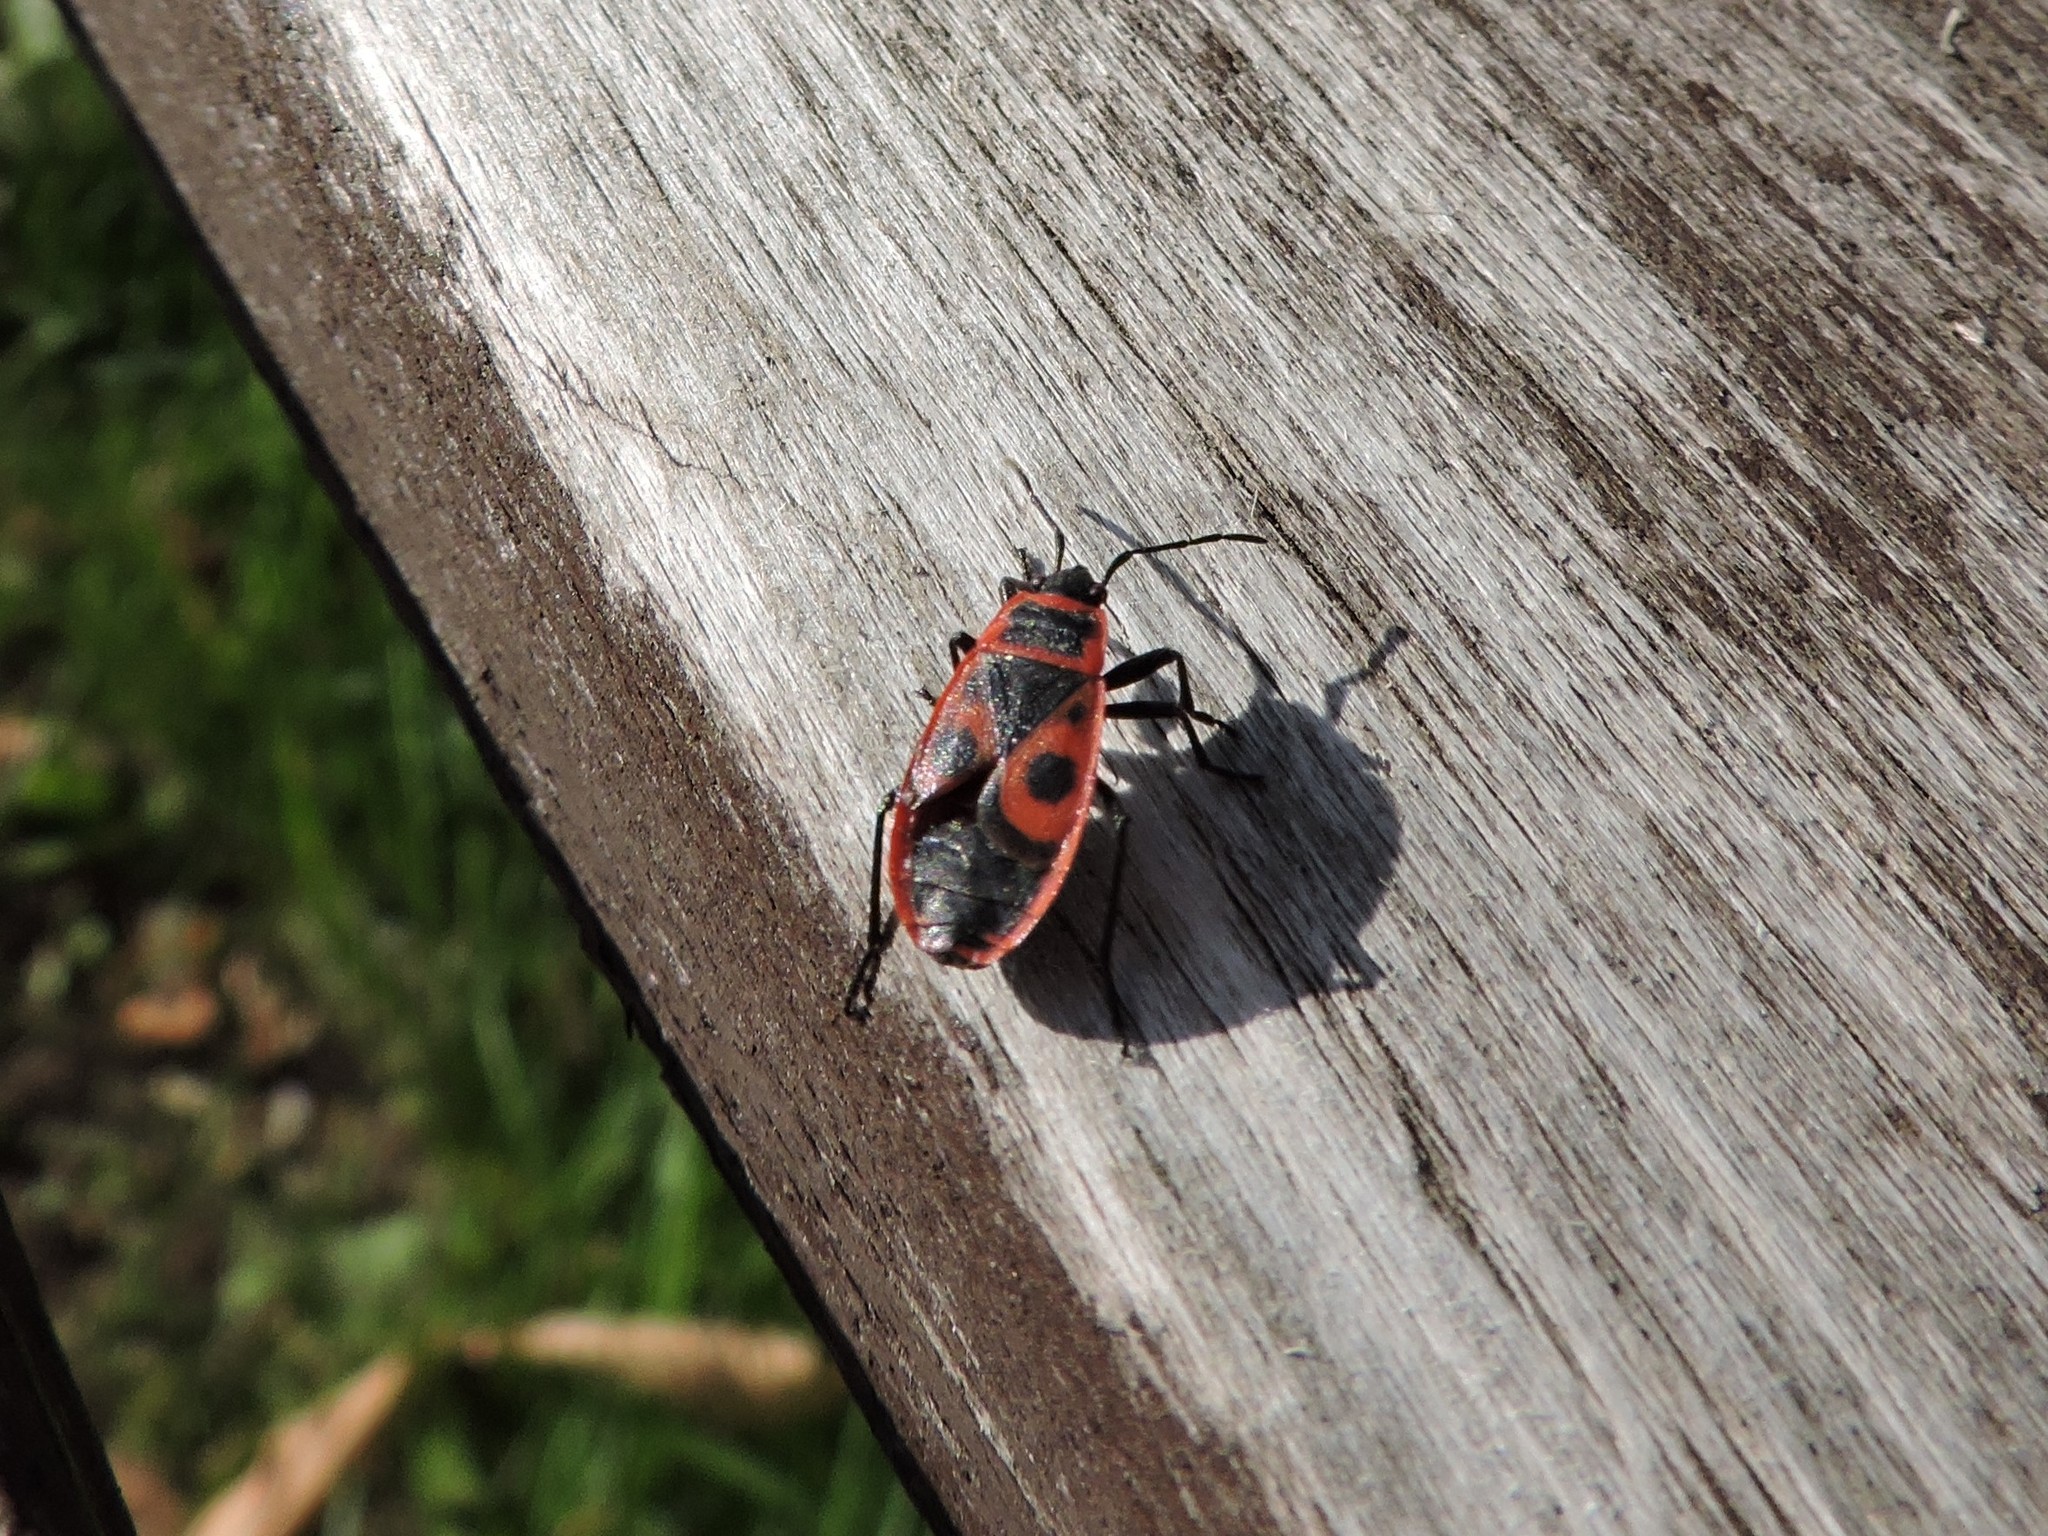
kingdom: Animalia
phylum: Arthropoda
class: Insecta
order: Hemiptera
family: Pyrrhocoridae
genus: Pyrrhocoris
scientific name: Pyrrhocoris apterus
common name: Firebug
